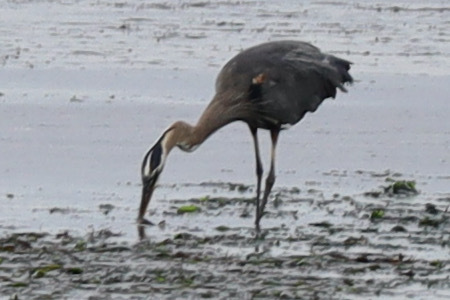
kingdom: Animalia
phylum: Chordata
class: Aves
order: Pelecaniformes
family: Ardeidae
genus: Ardea
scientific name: Ardea herodias
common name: Great blue heron
